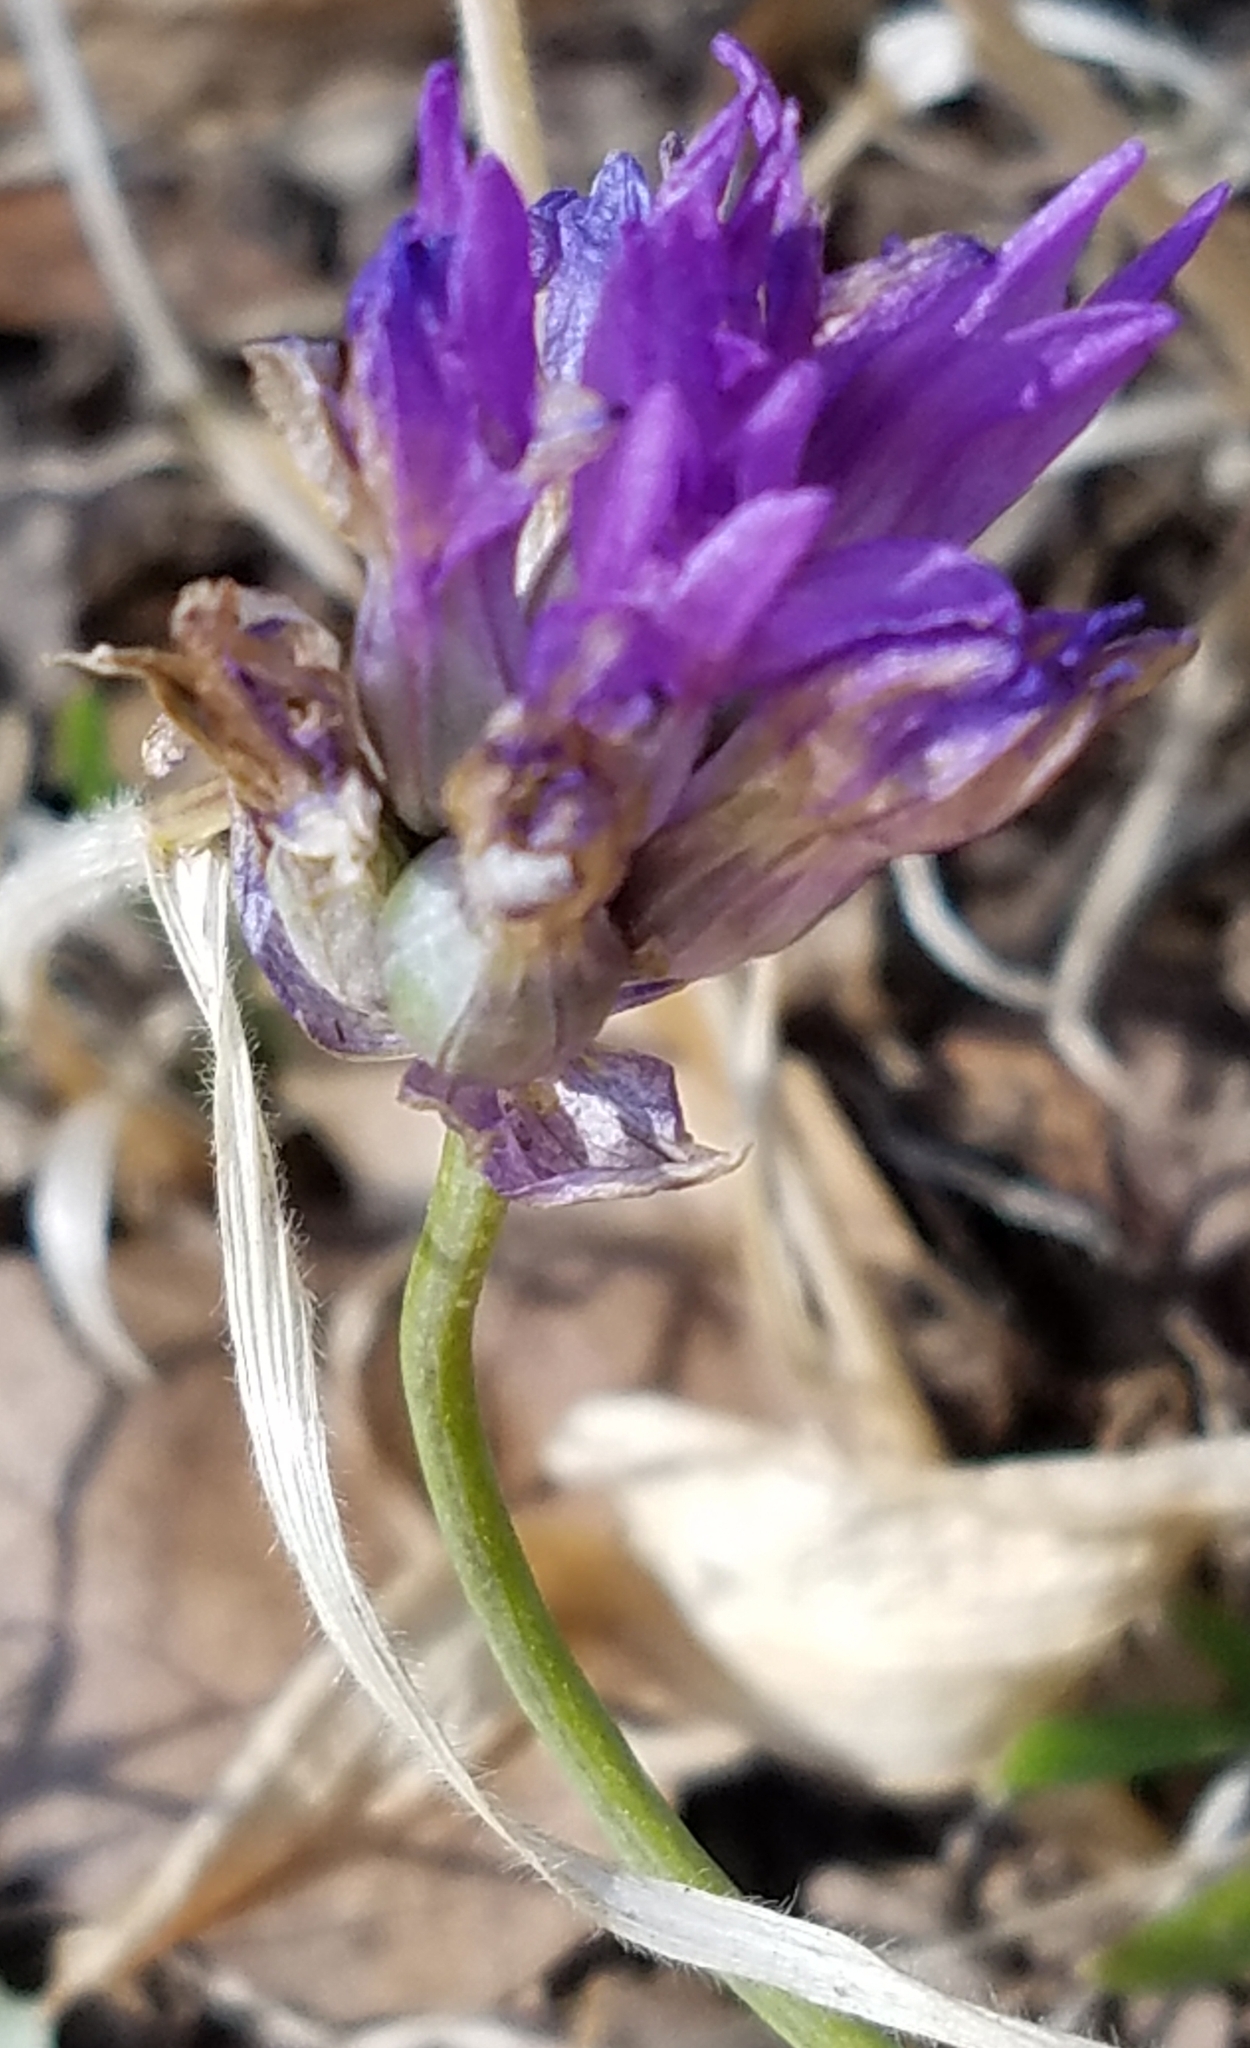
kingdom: Plantae
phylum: Tracheophyta
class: Liliopsida
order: Asparagales
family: Asparagaceae
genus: Dichelostemma
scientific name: Dichelostemma congestum
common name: Fork-tooth ookow
